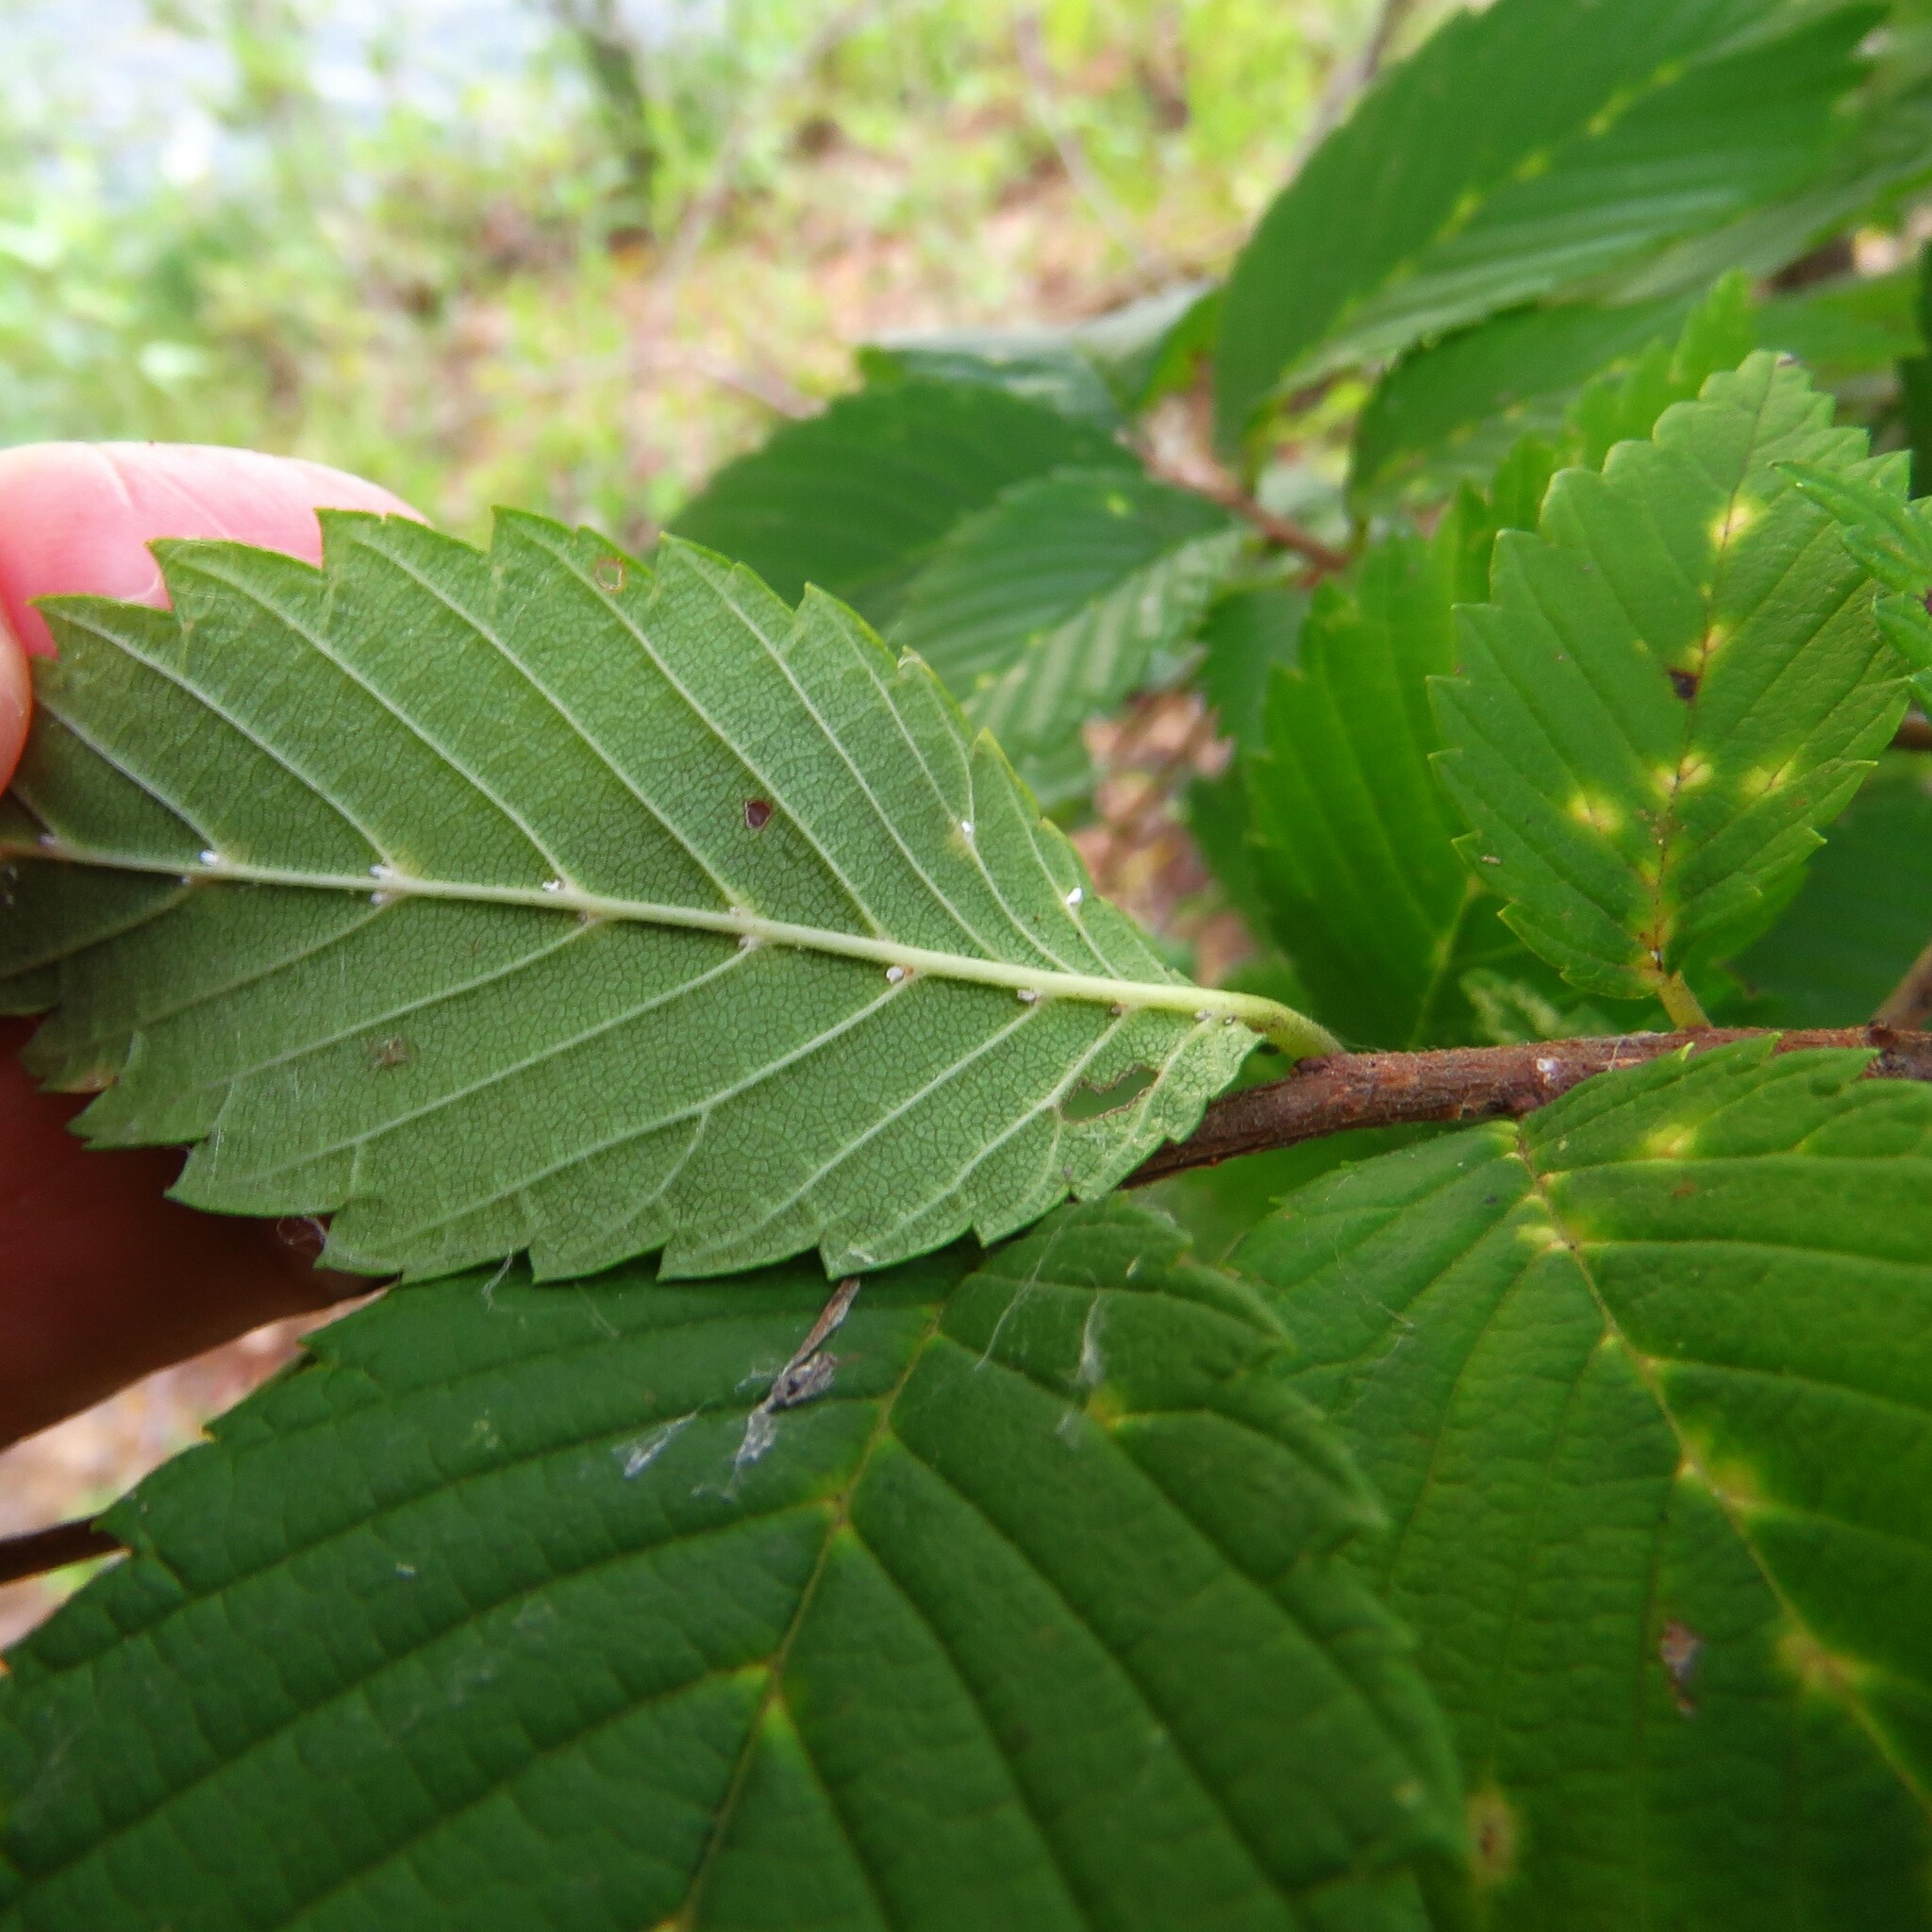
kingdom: Animalia
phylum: Arthropoda
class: Arachnida
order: Trombidiformes
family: Eriophyidae
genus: Aceria
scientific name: Aceria
